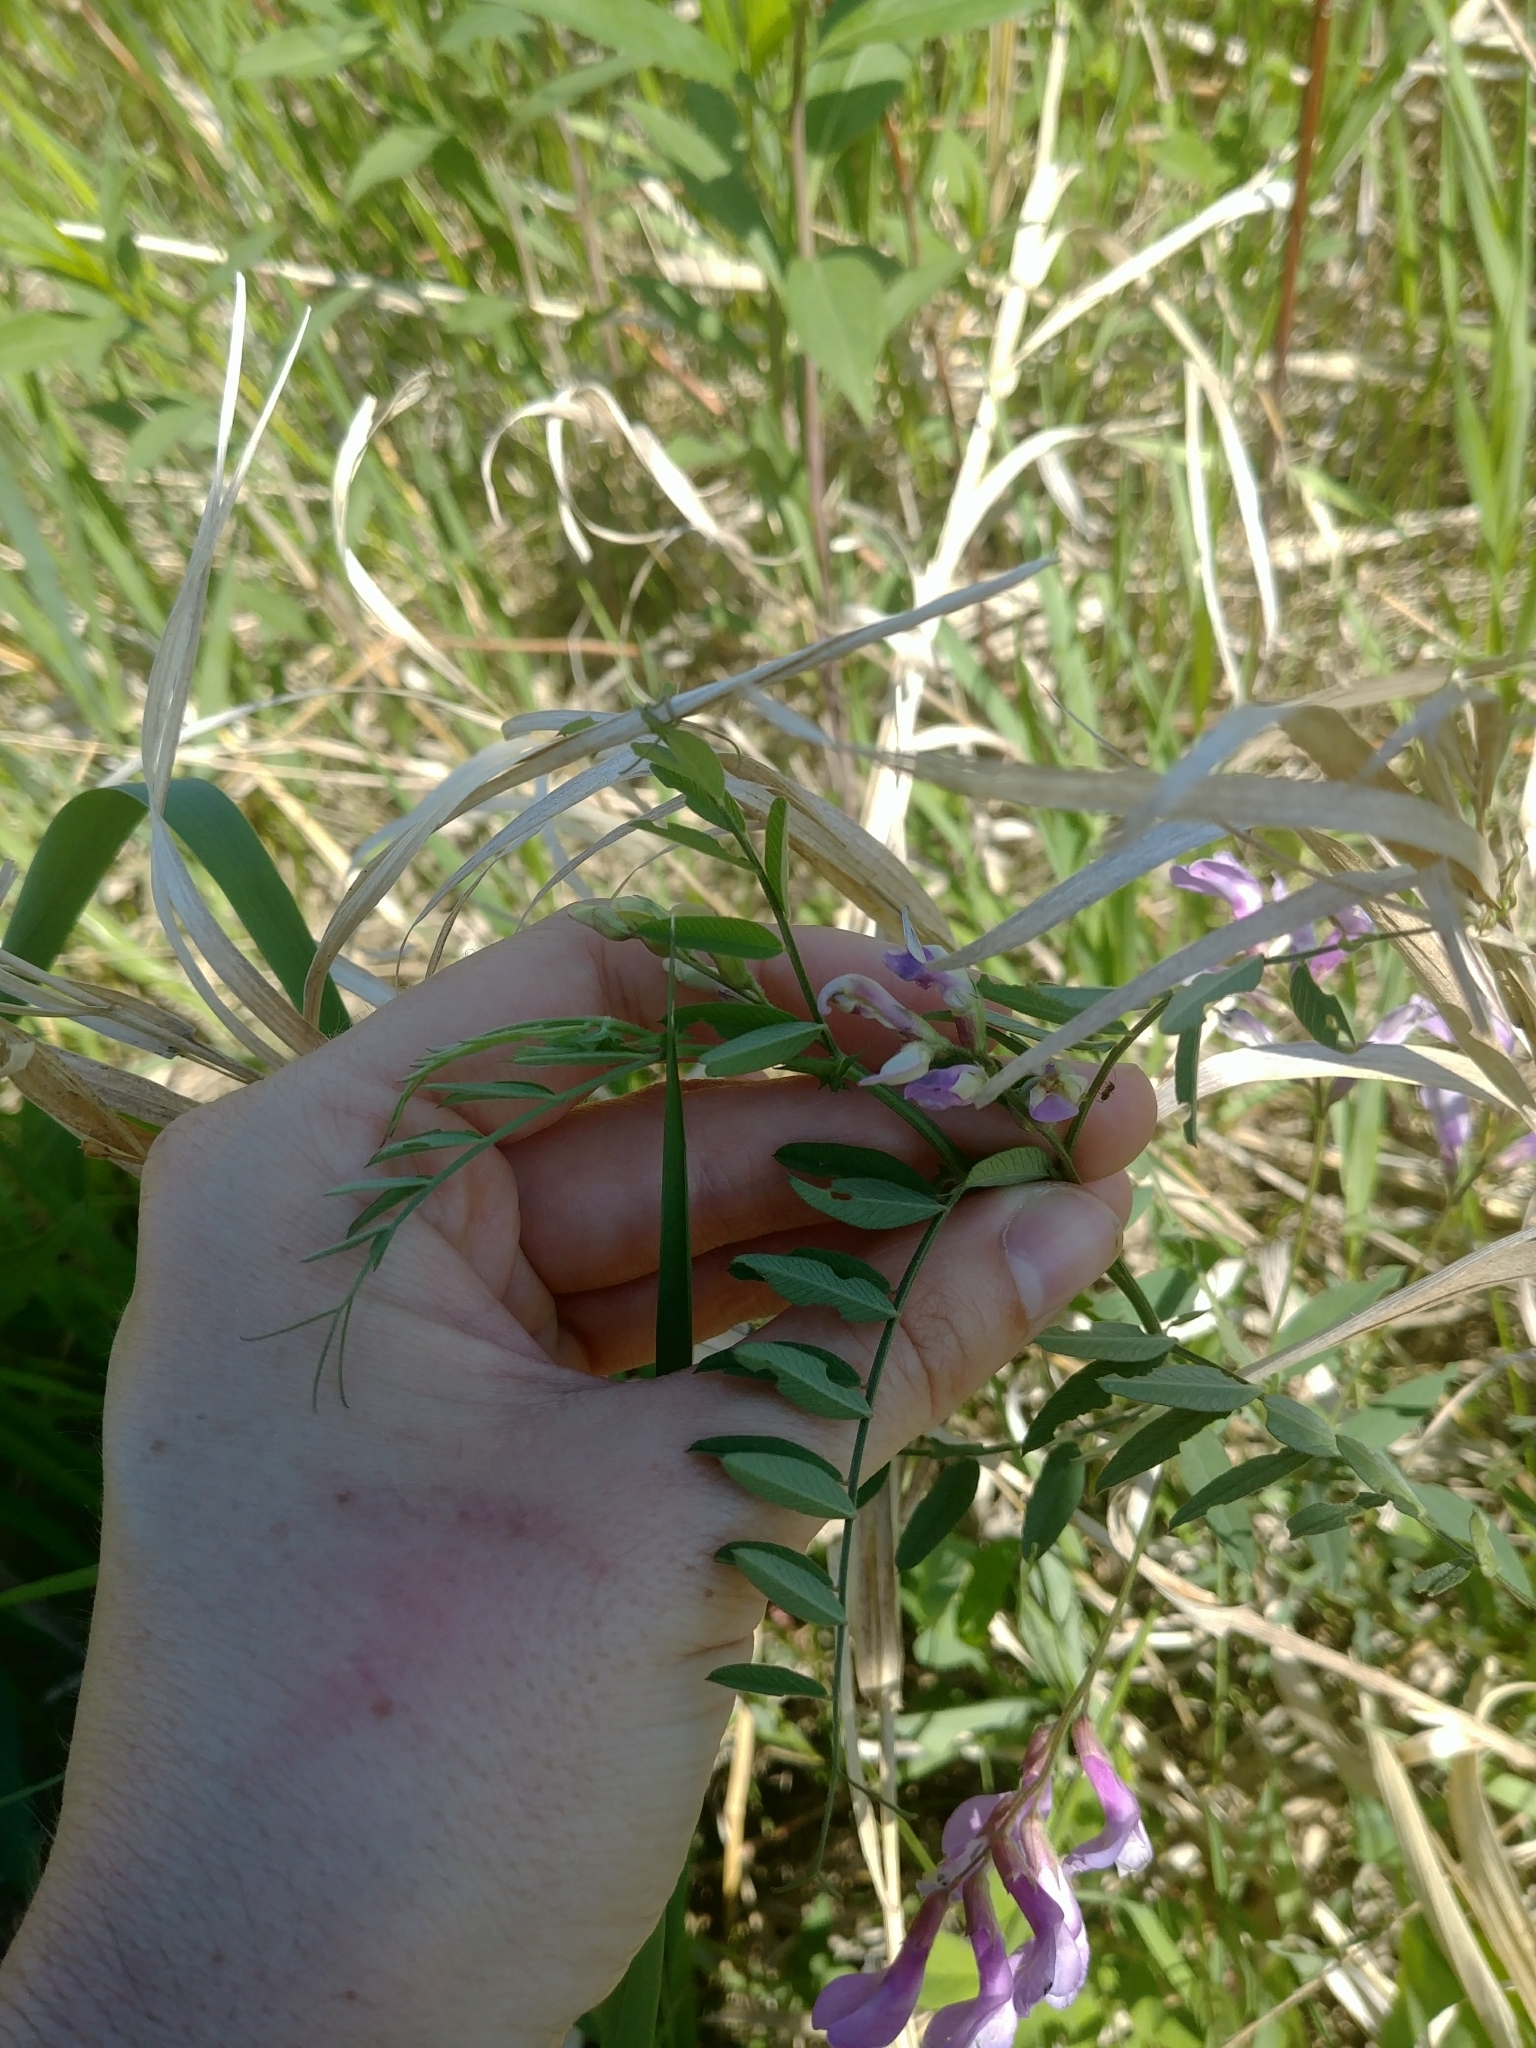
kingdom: Plantae
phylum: Tracheophyta
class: Magnoliopsida
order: Fabales
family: Fabaceae
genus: Vicia
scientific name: Vicia americana
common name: American vetch
